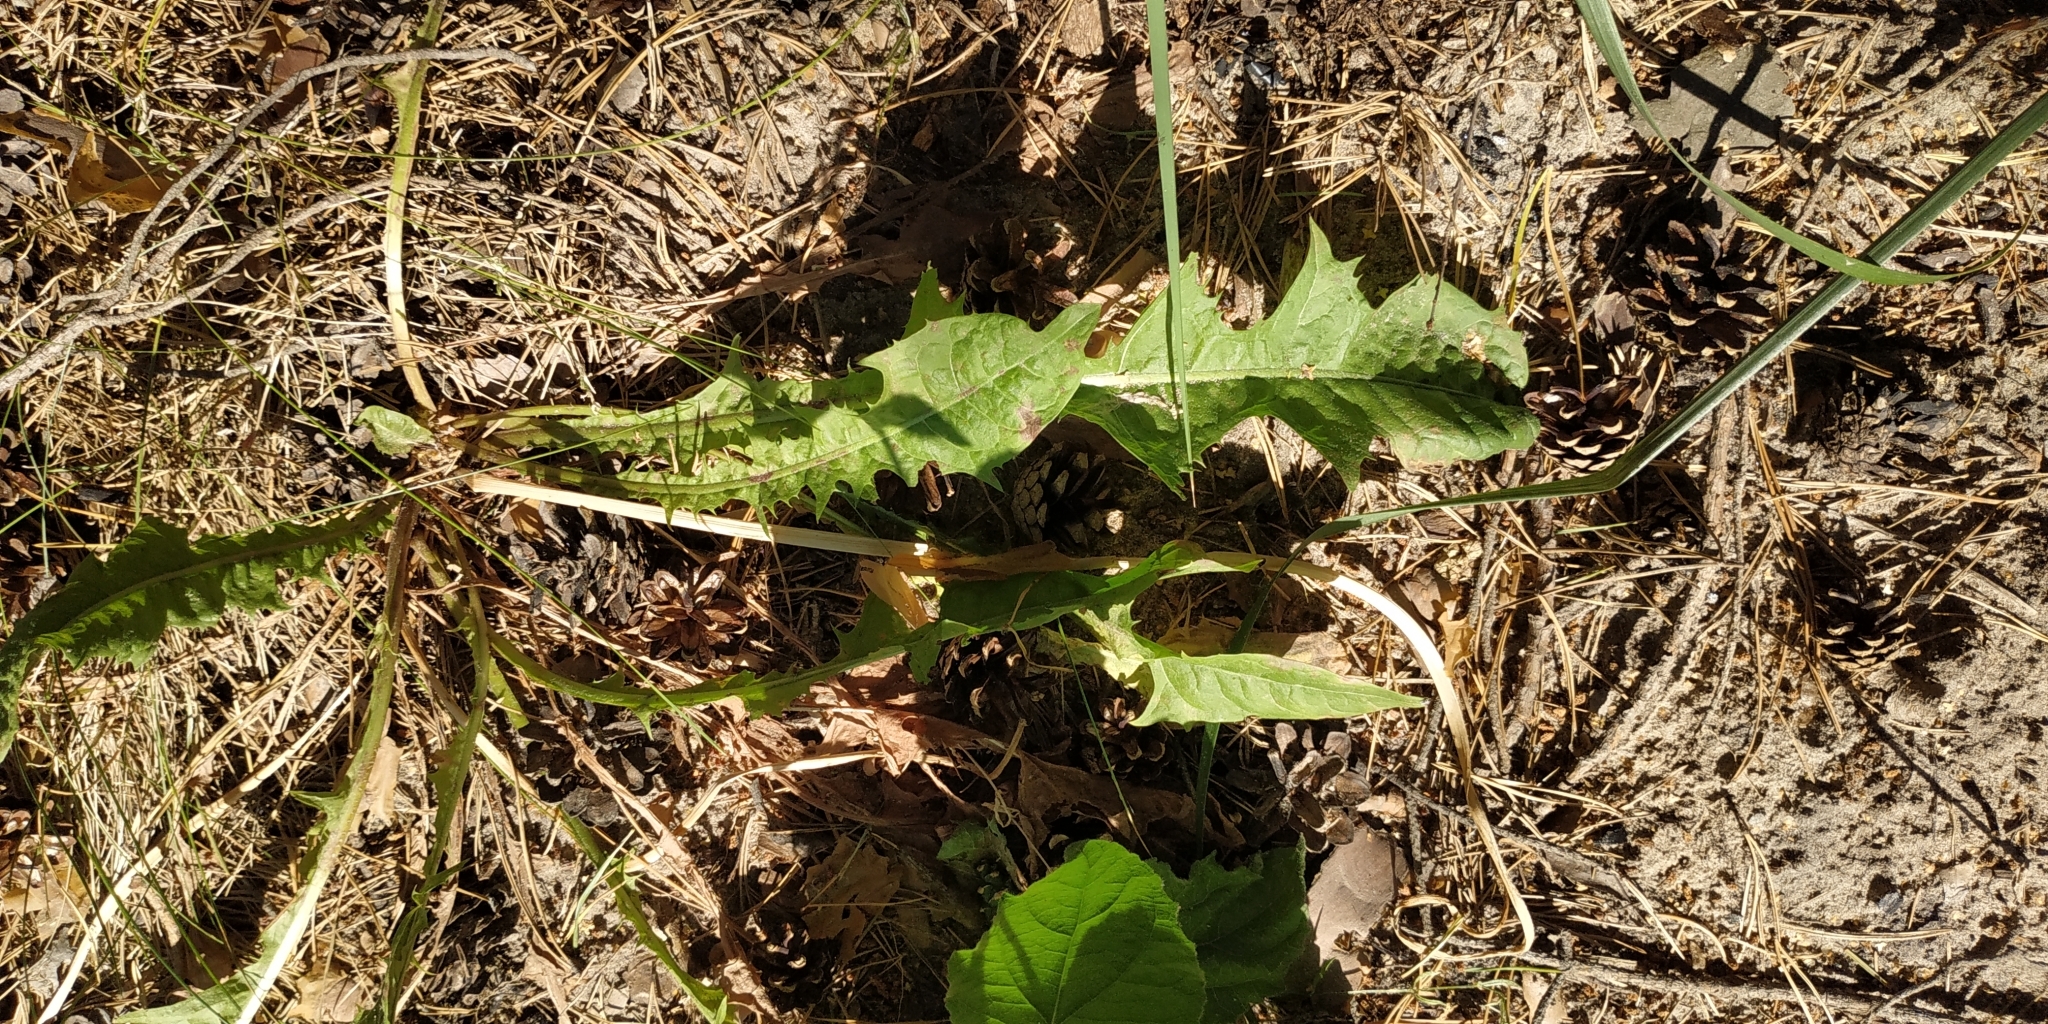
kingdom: Plantae
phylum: Tracheophyta
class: Magnoliopsida
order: Asterales
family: Asteraceae
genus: Taraxacum
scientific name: Taraxacum officinale
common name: Common dandelion
